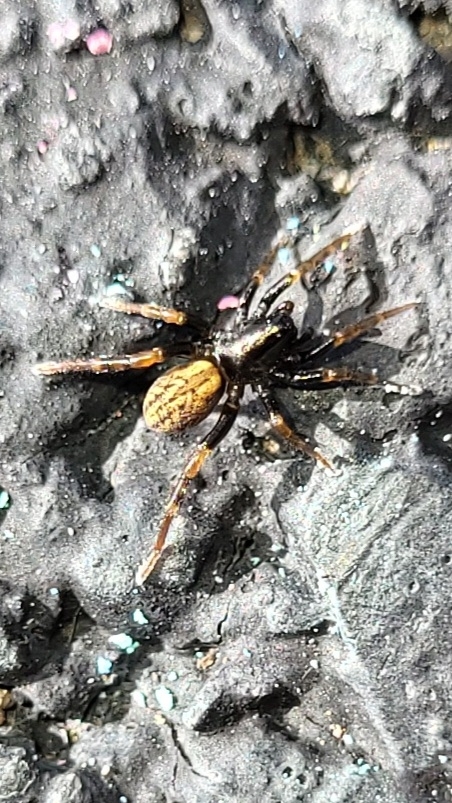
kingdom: Animalia
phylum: Arthropoda
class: Arachnida
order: Araneae
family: Lycosidae
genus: Allocosa
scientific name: Allocosa funerea
